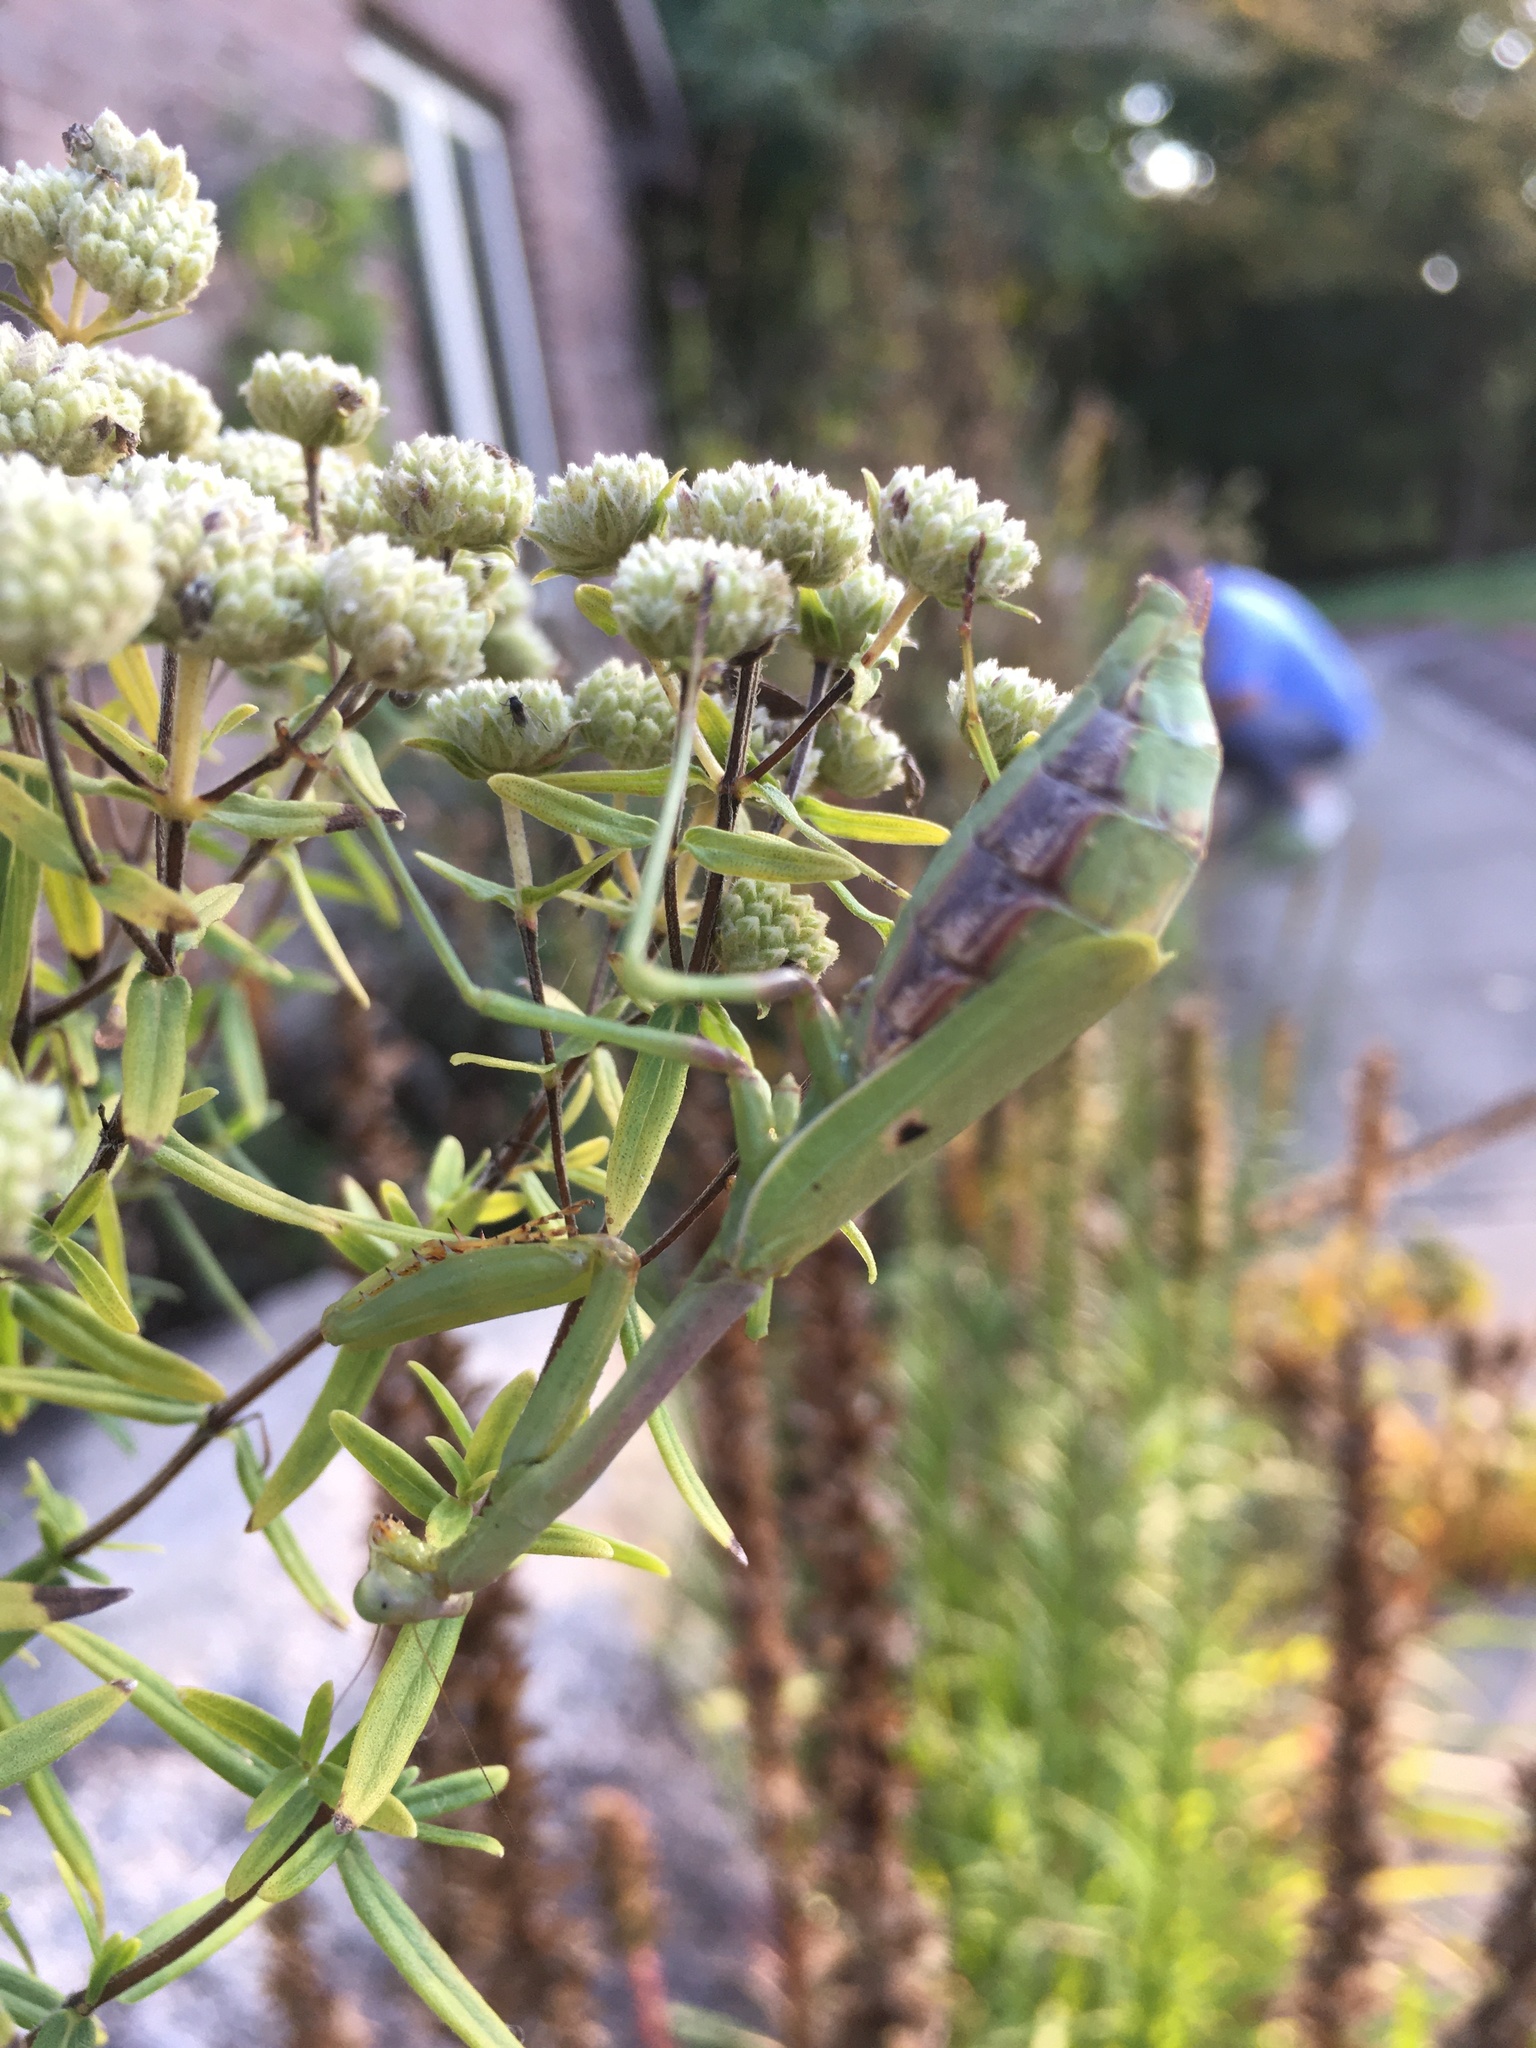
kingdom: Animalia
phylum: Arthropoda
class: Insecta
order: Mantodea
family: Mantidae
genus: Stagmomantis
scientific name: Stagmomantis carolina
